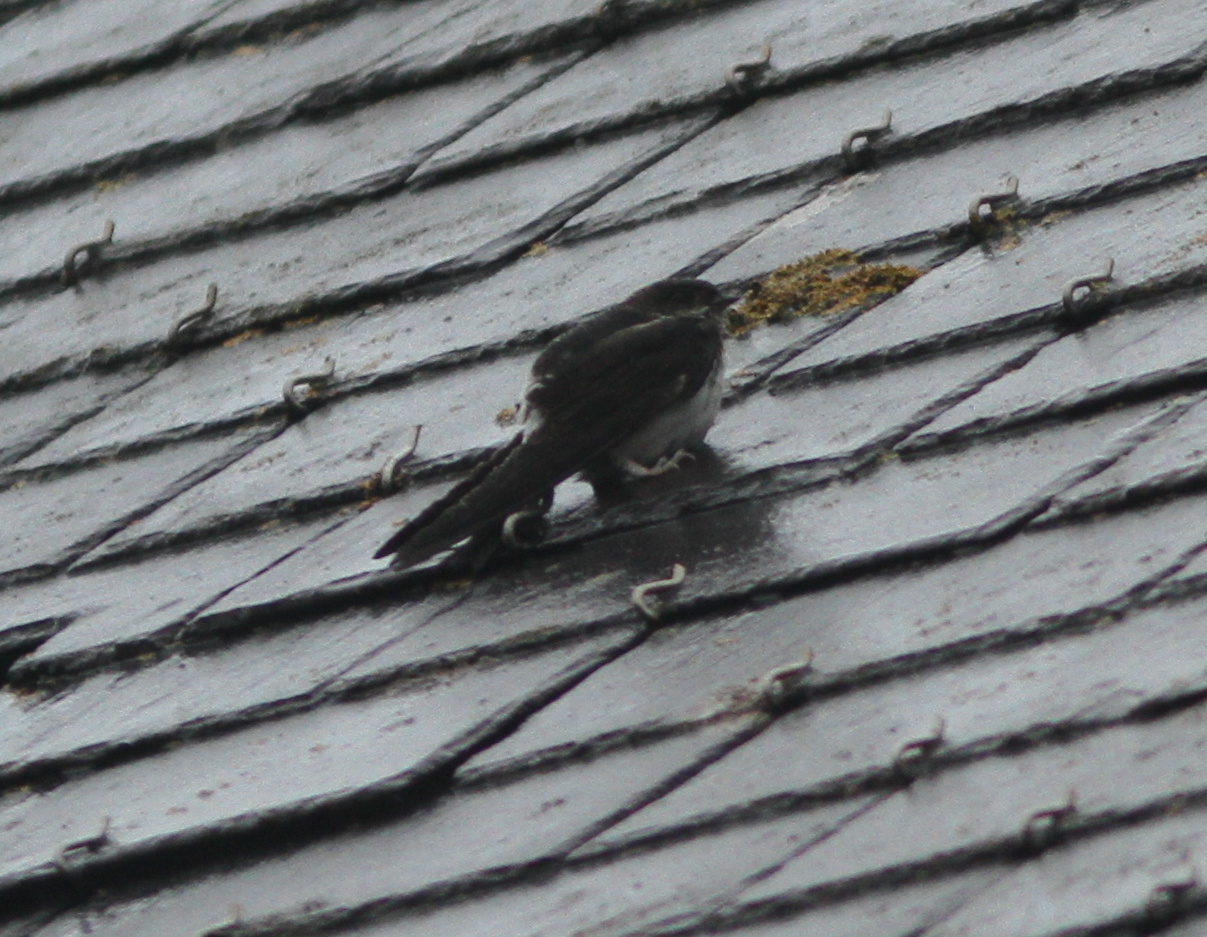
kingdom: Animalia
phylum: Chordata
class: Aves
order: Passeriformes
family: Hirundinidae
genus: Delichon
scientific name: Delichon urbicum
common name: Common house martin
